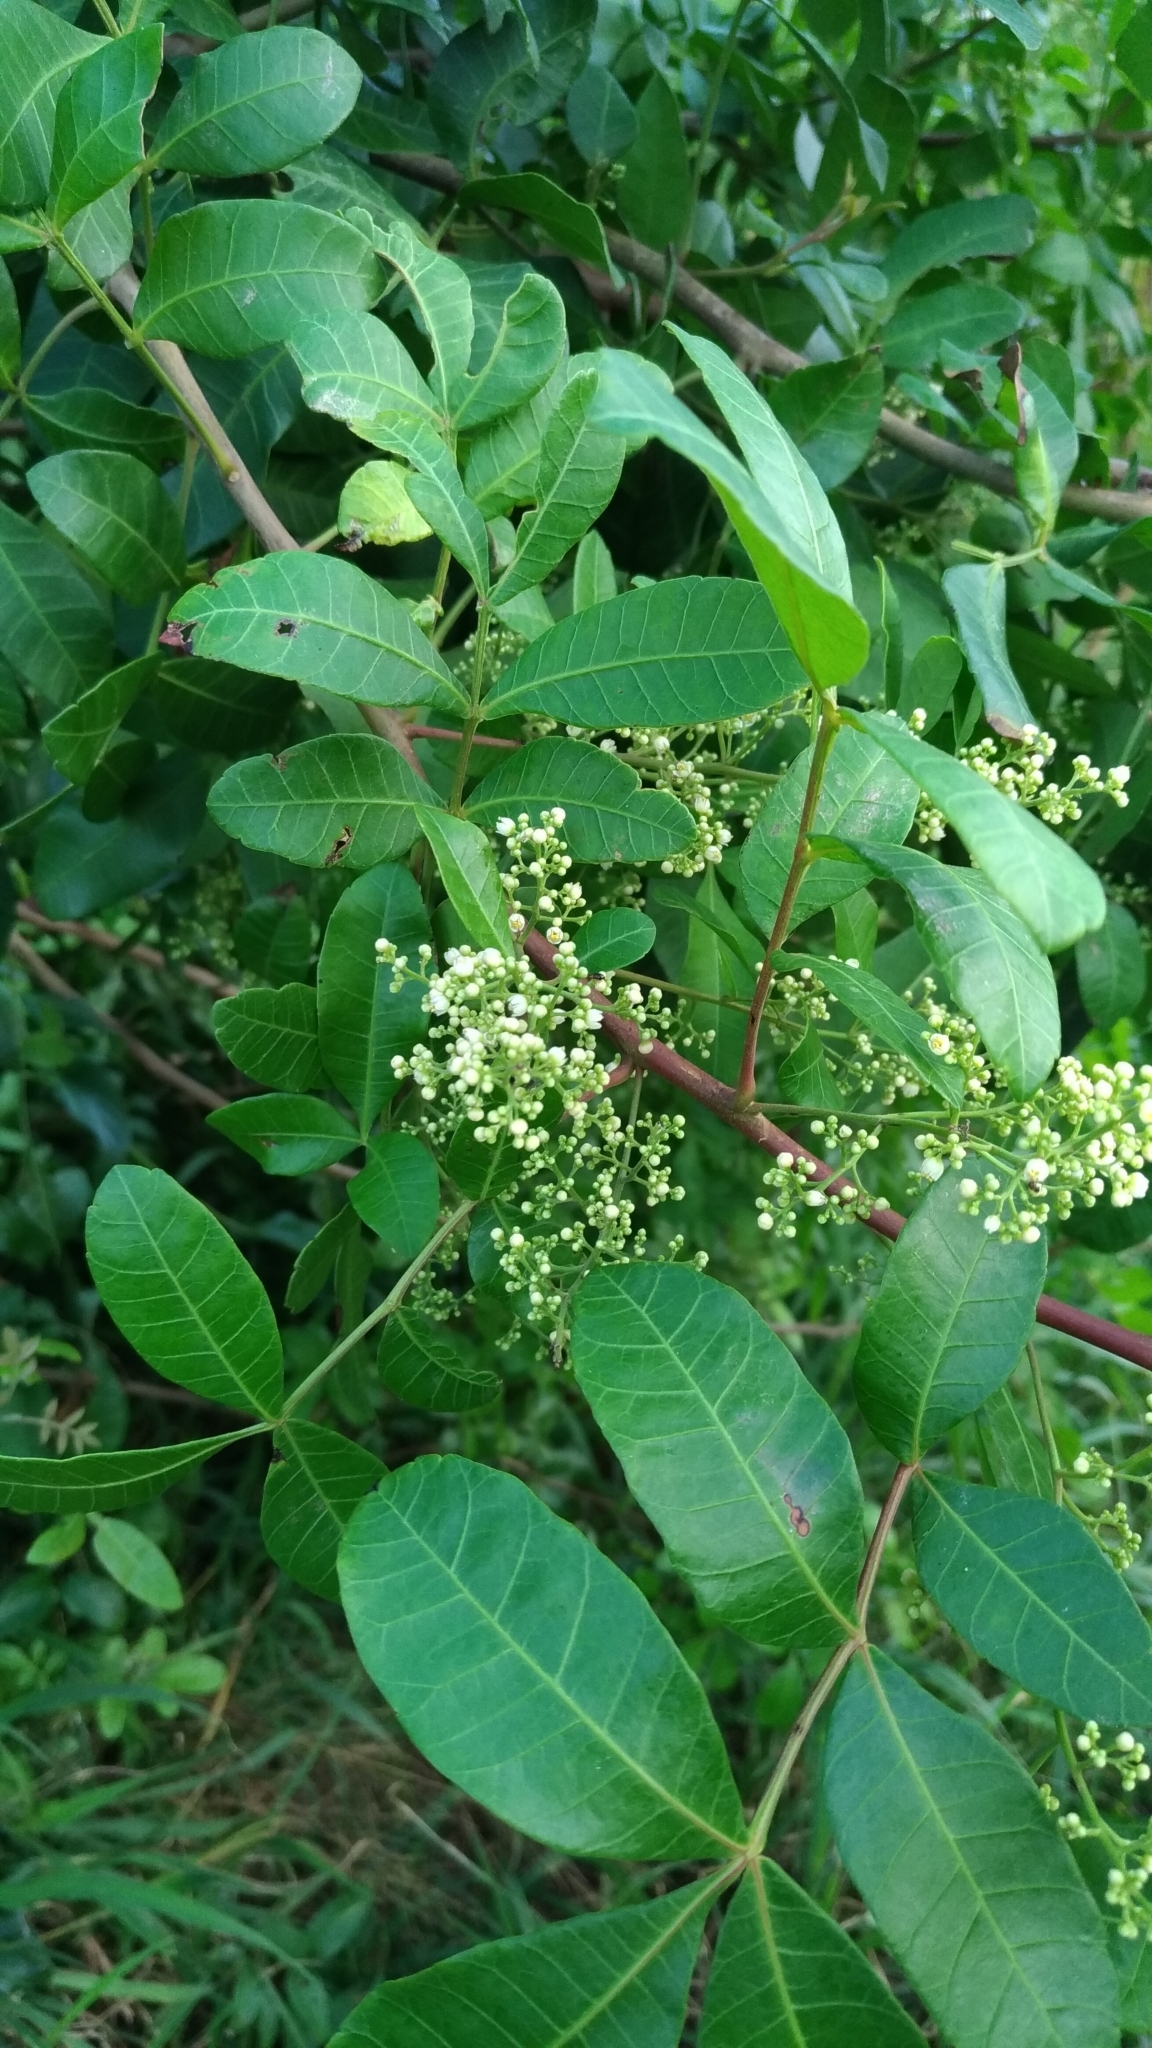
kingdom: Plantae
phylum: Tracheophyta
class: Magnoliopsida
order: Sapindales
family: Anacardiaceae
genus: Schinus
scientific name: Schinus terebinthifolia
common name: Brazilian peppertree
